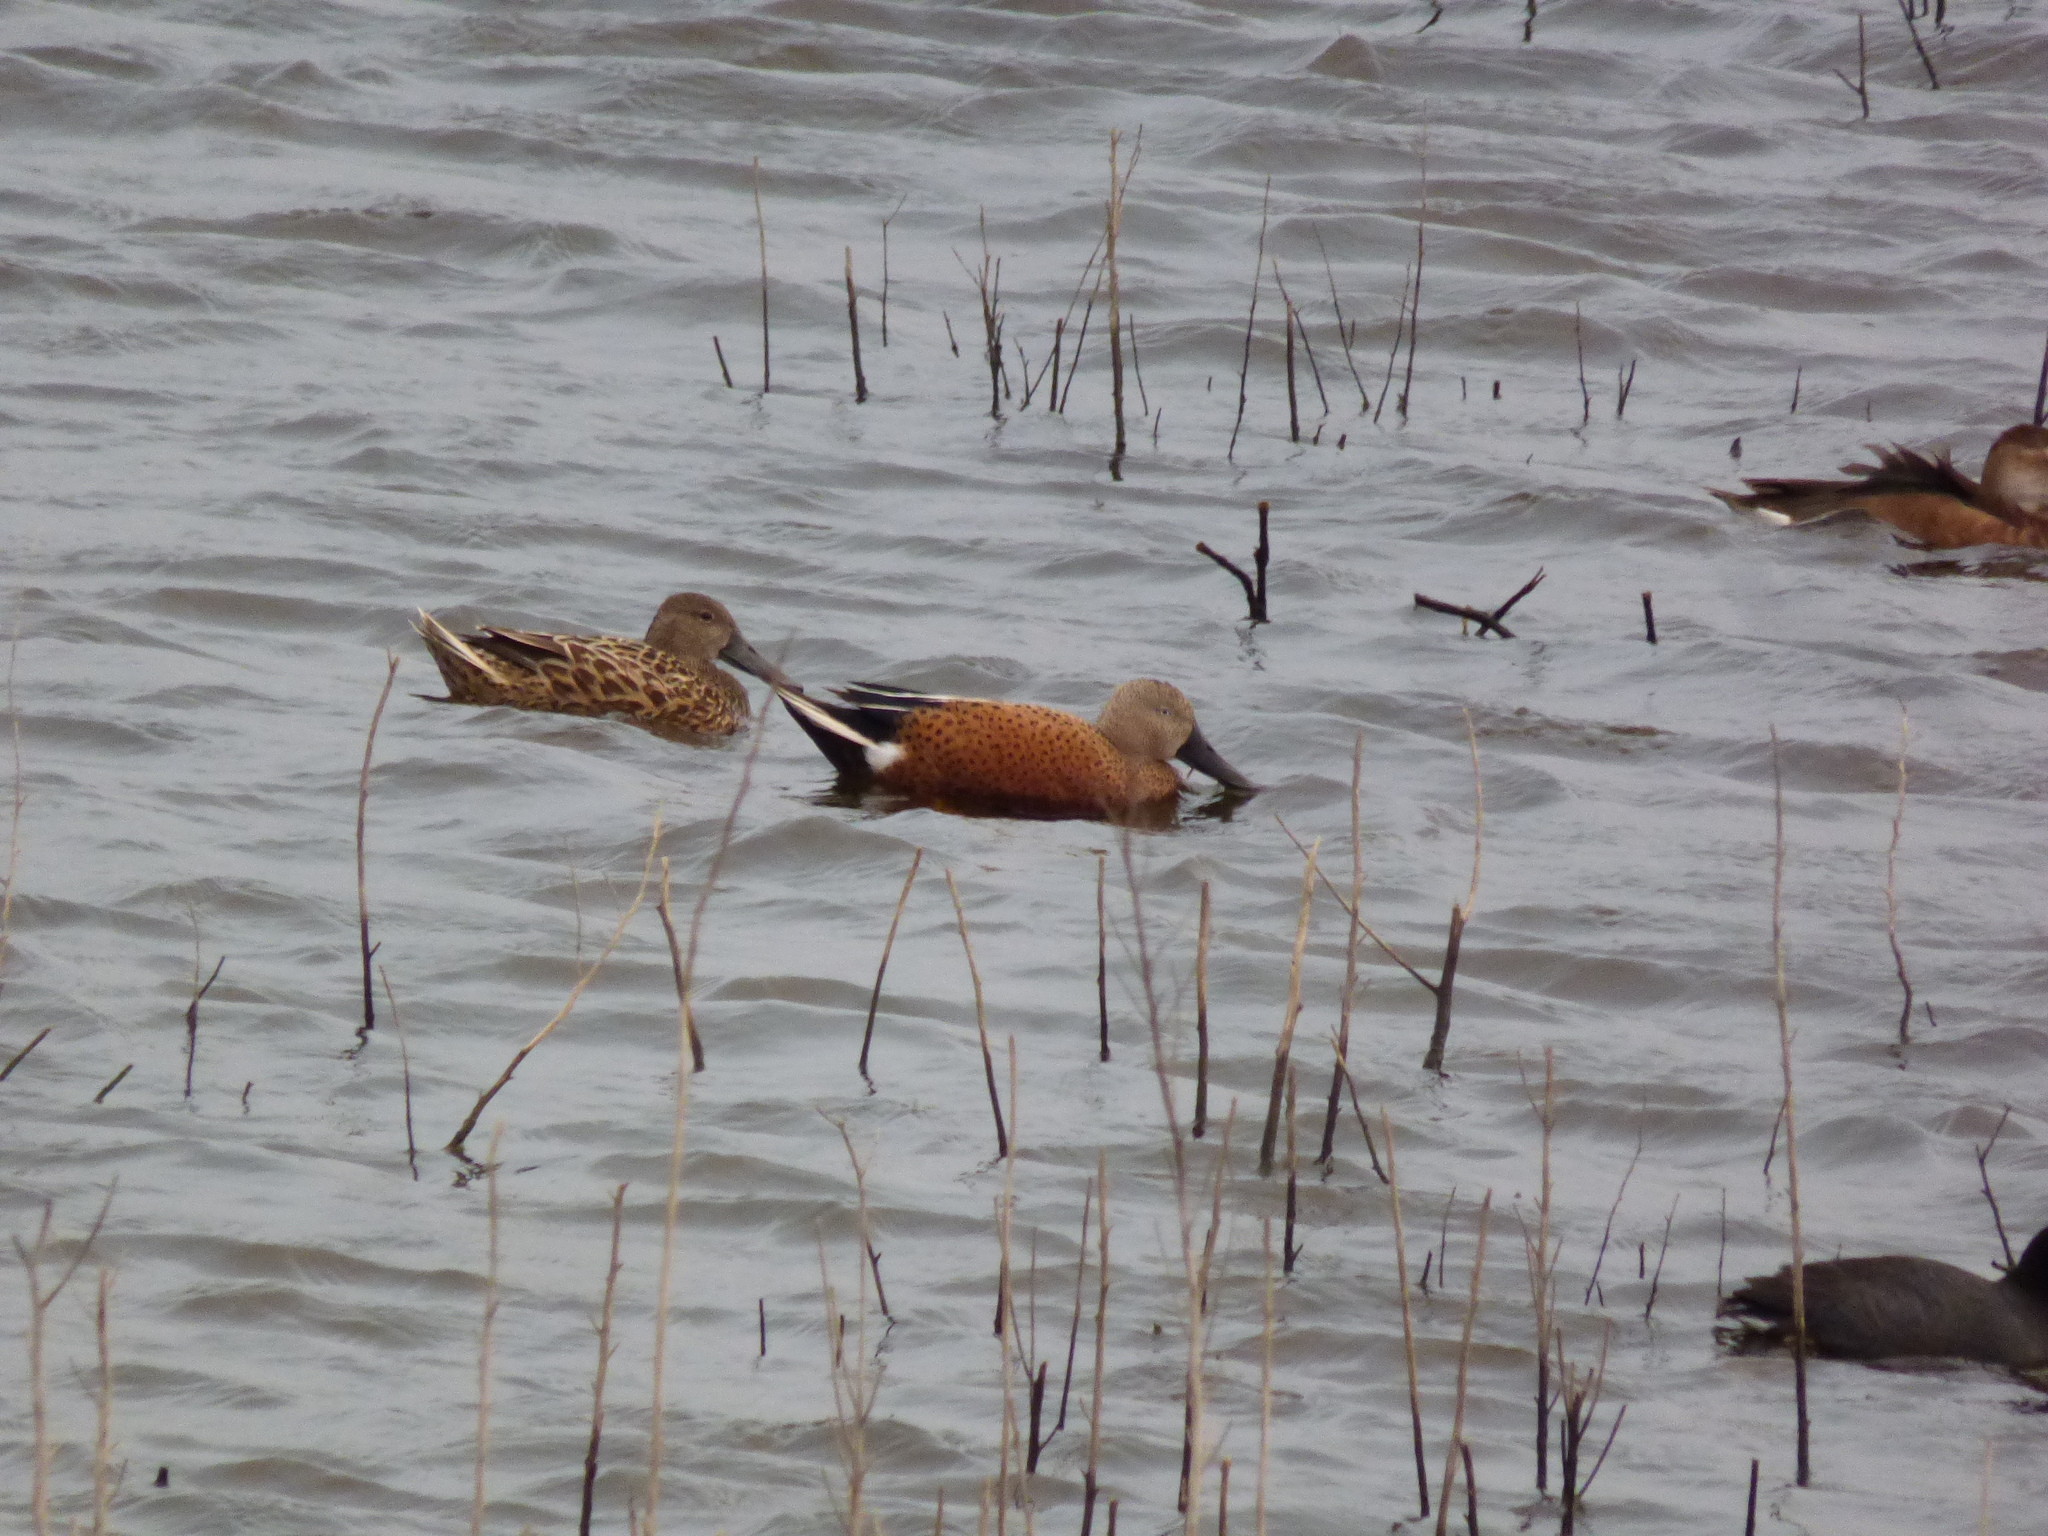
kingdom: Animalia
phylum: Chordata
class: Aves
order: Anseriformes
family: Anatidae
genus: Spatula
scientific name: Spatula platalea
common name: Red shoveler
